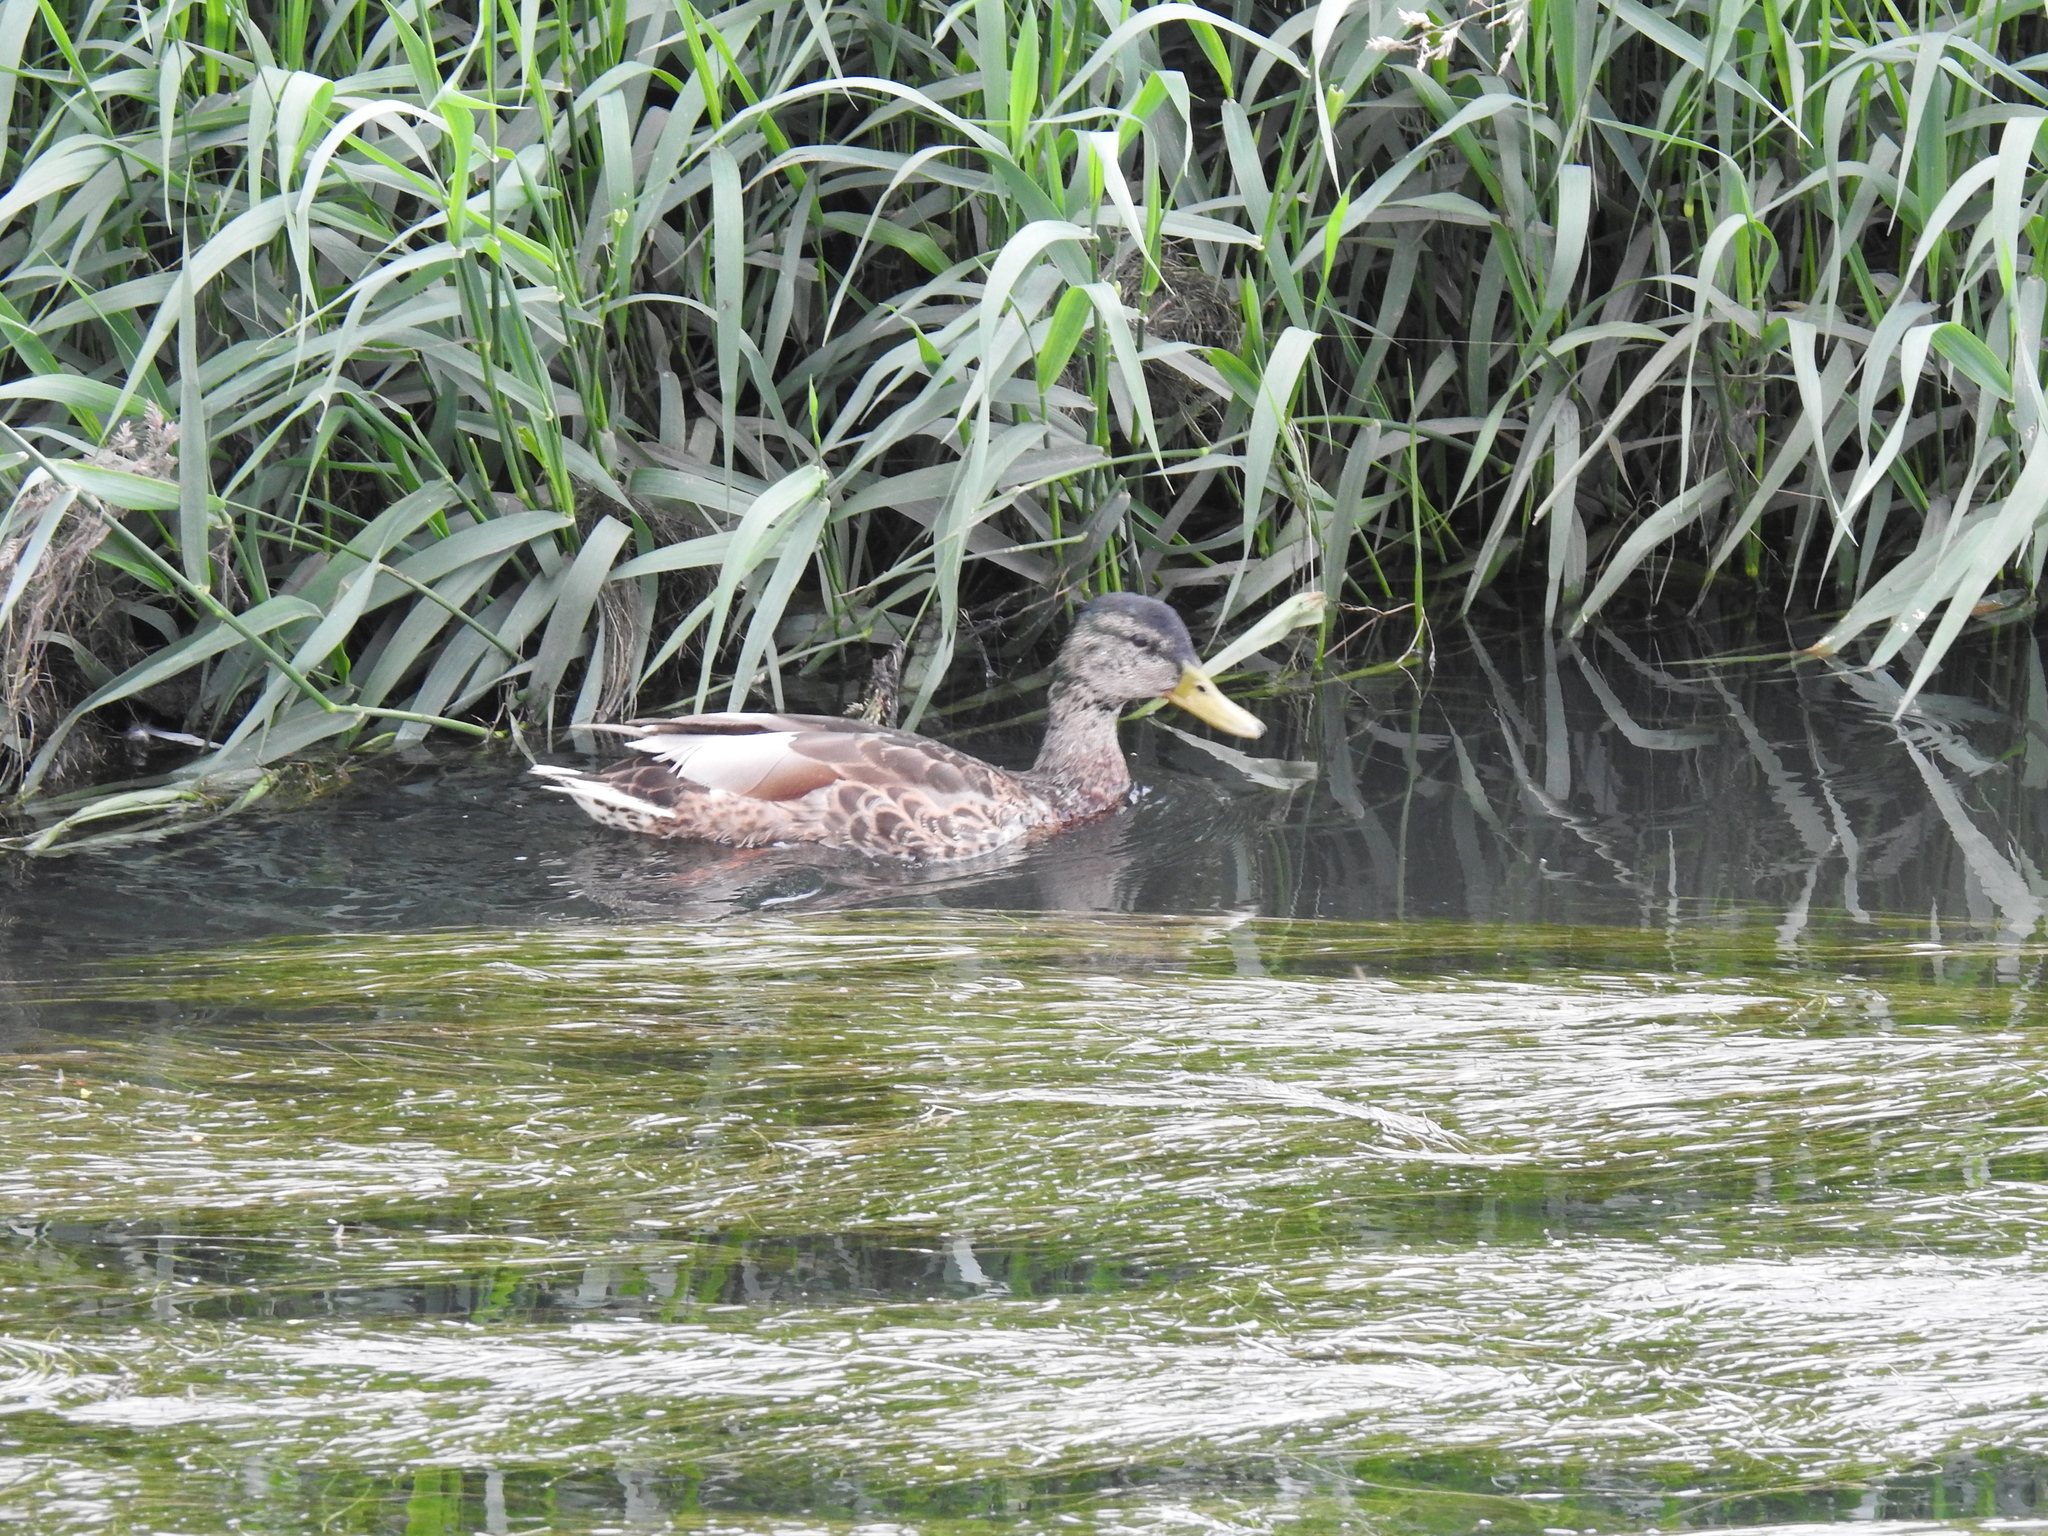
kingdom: Animalia
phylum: Chordata
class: Aves
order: Anseriformes
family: Anatidae
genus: Anas
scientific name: Anas platyrhynchos
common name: Mallard
